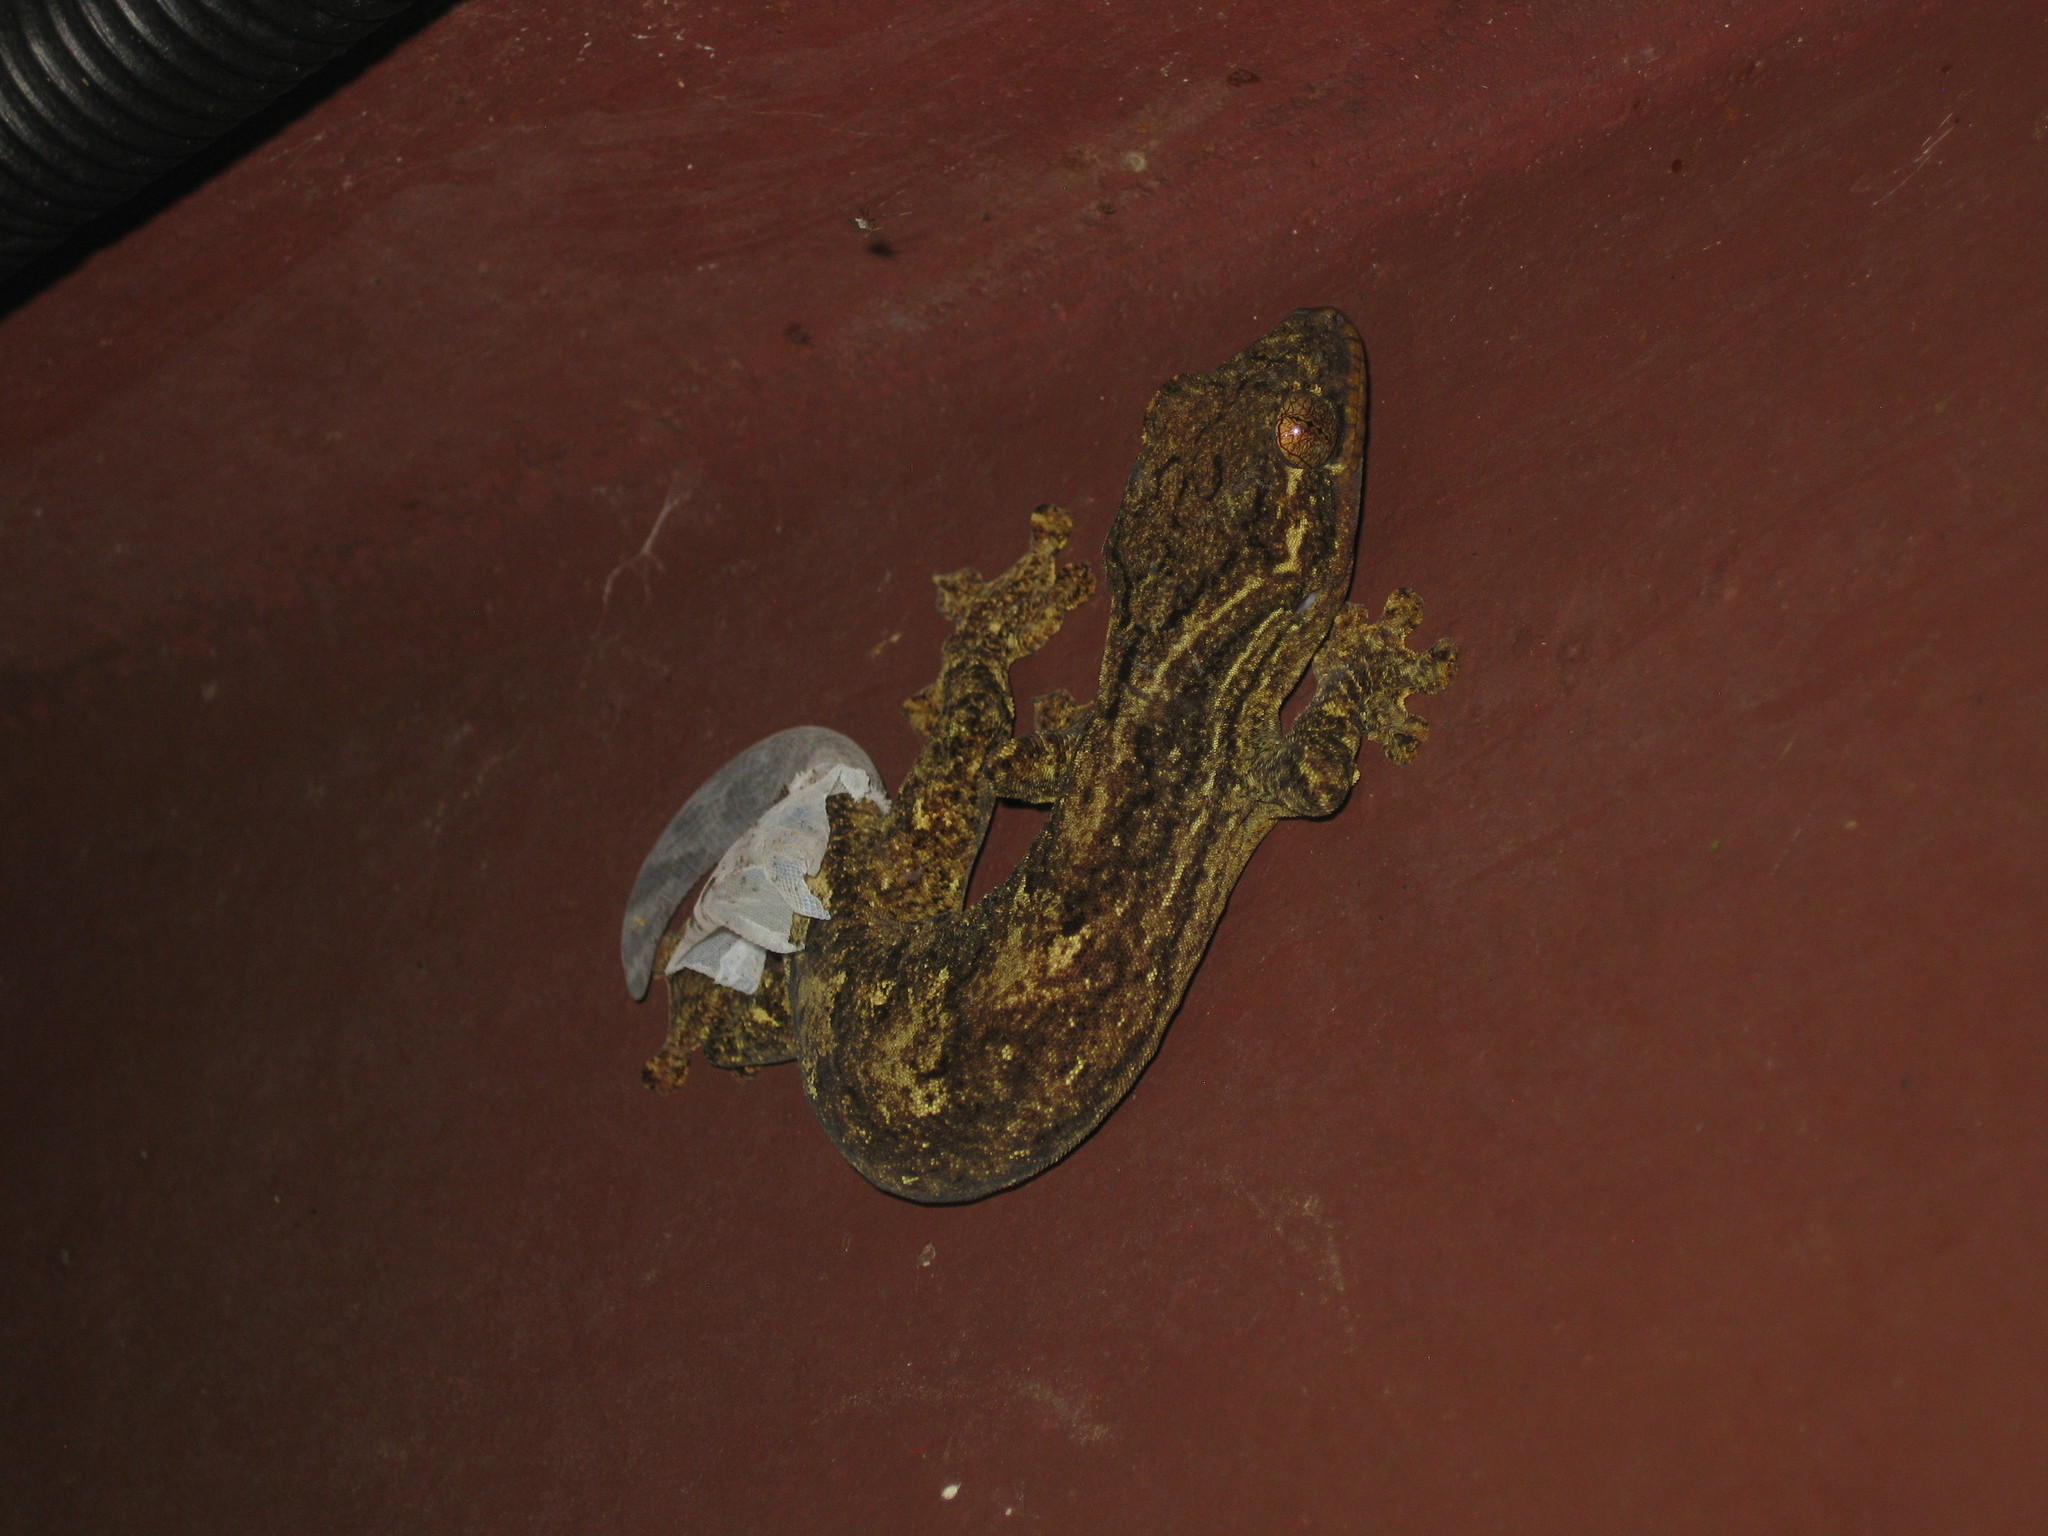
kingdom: Animalia
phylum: Chordata
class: Squamata
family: Phyllodactylidae
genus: Thecadactylus
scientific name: Thecadactylus solimoensis
